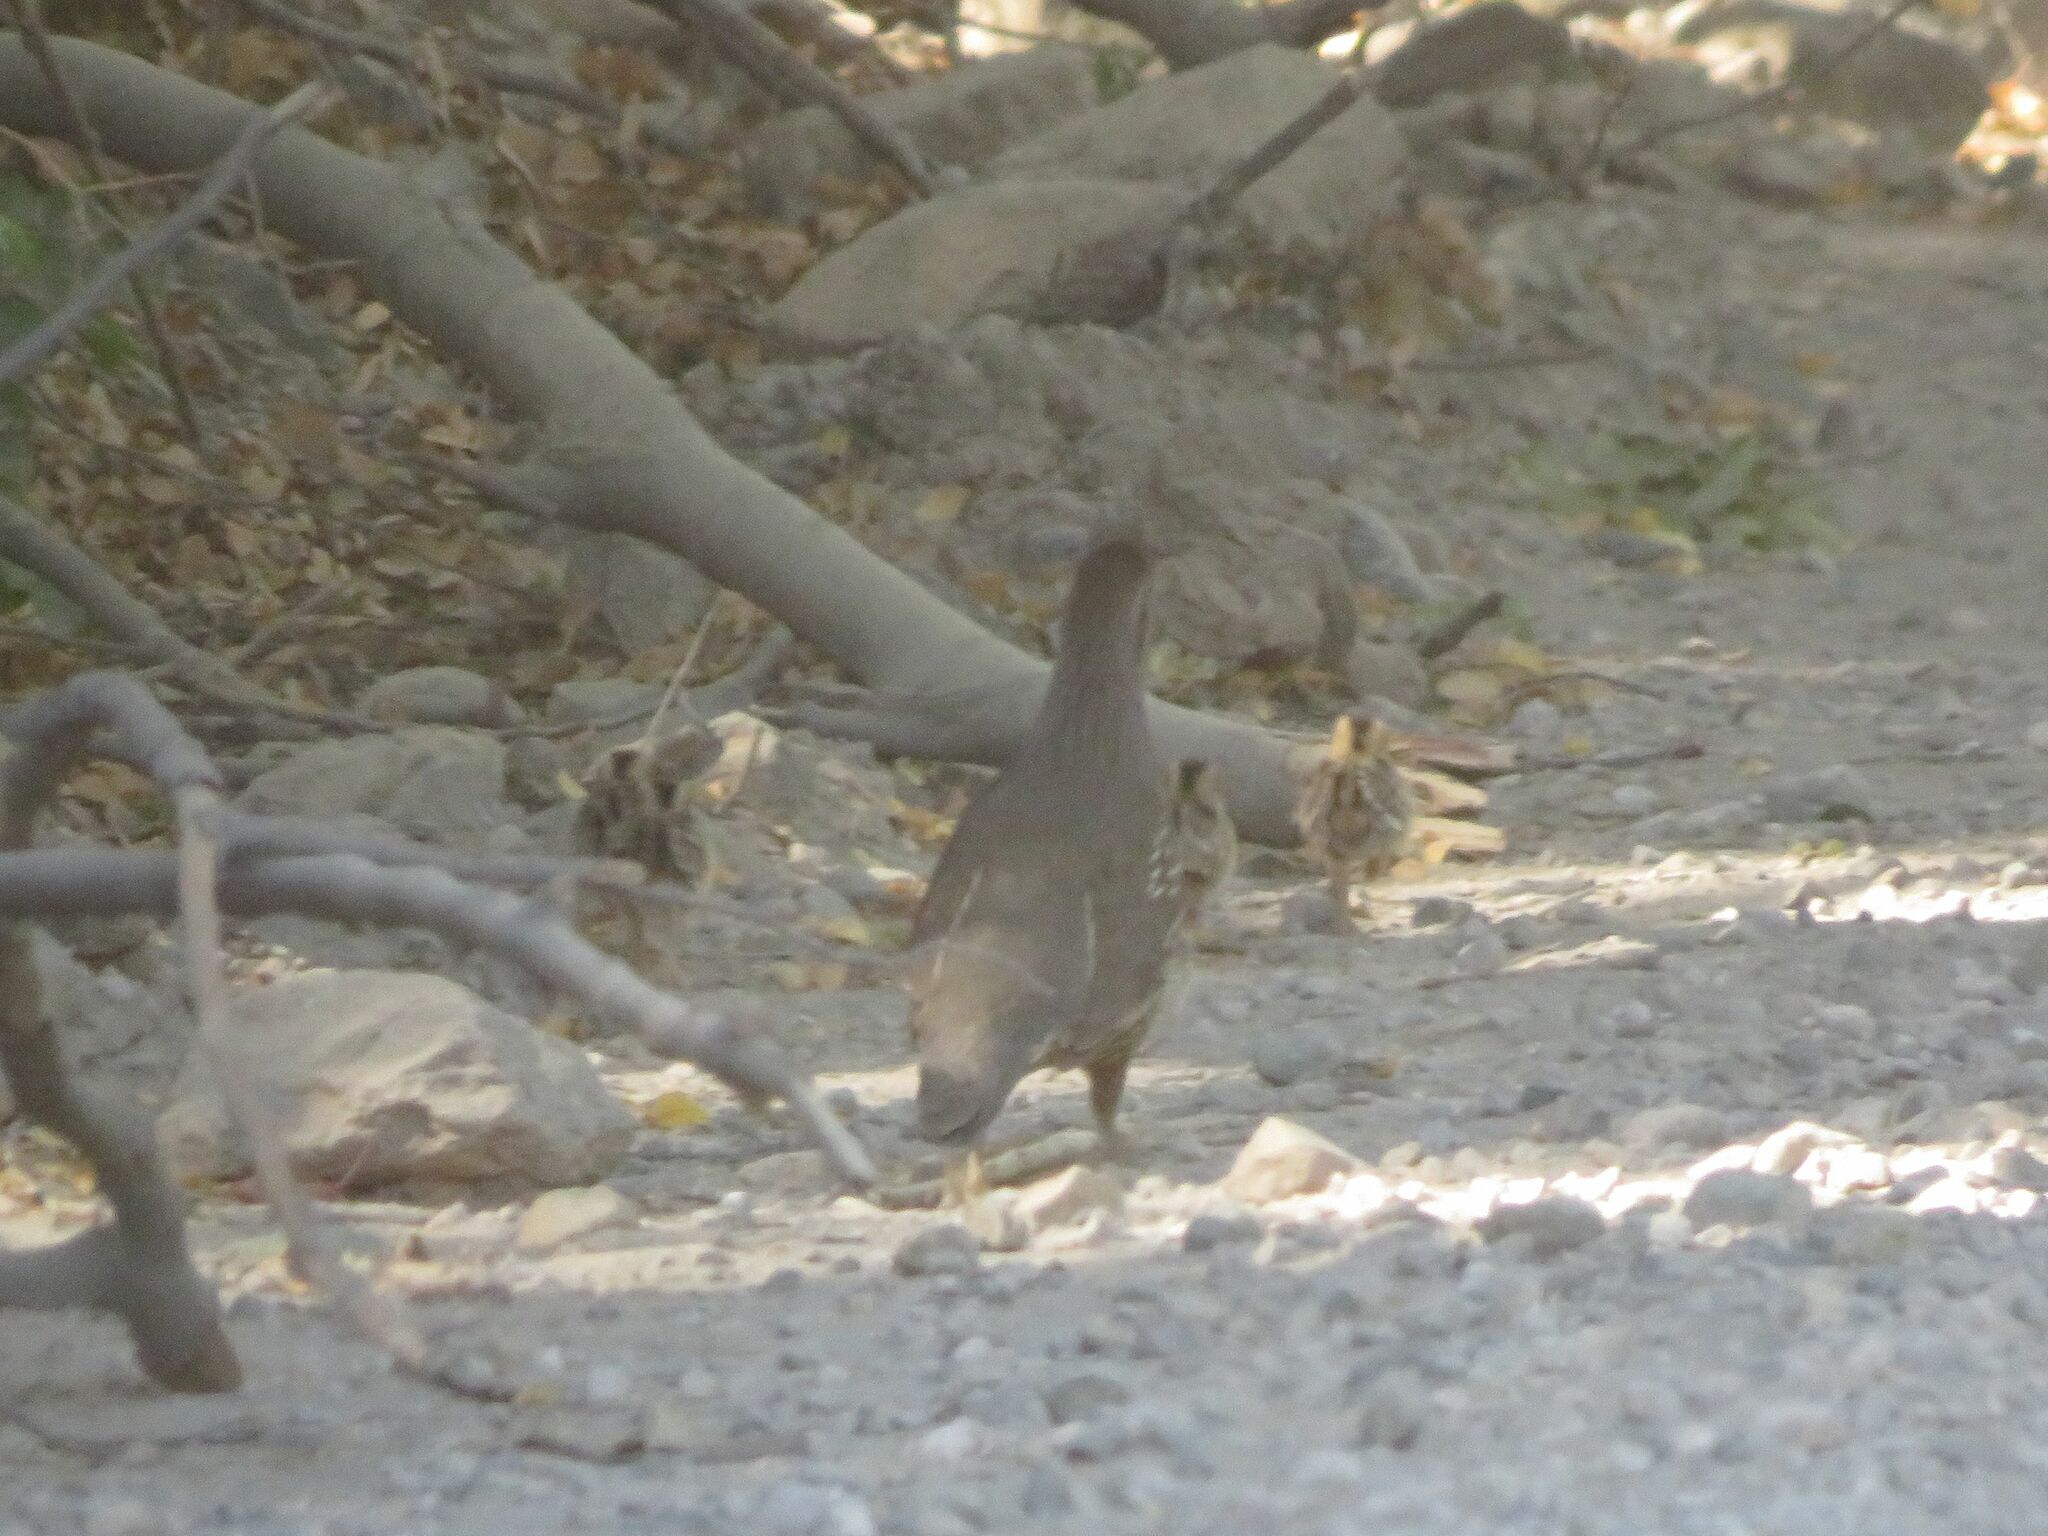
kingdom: Animalia
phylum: Chordata
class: Aves
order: Galliformes
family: Odontophoridae
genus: Callipepla
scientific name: Callipepla californica
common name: California quail
